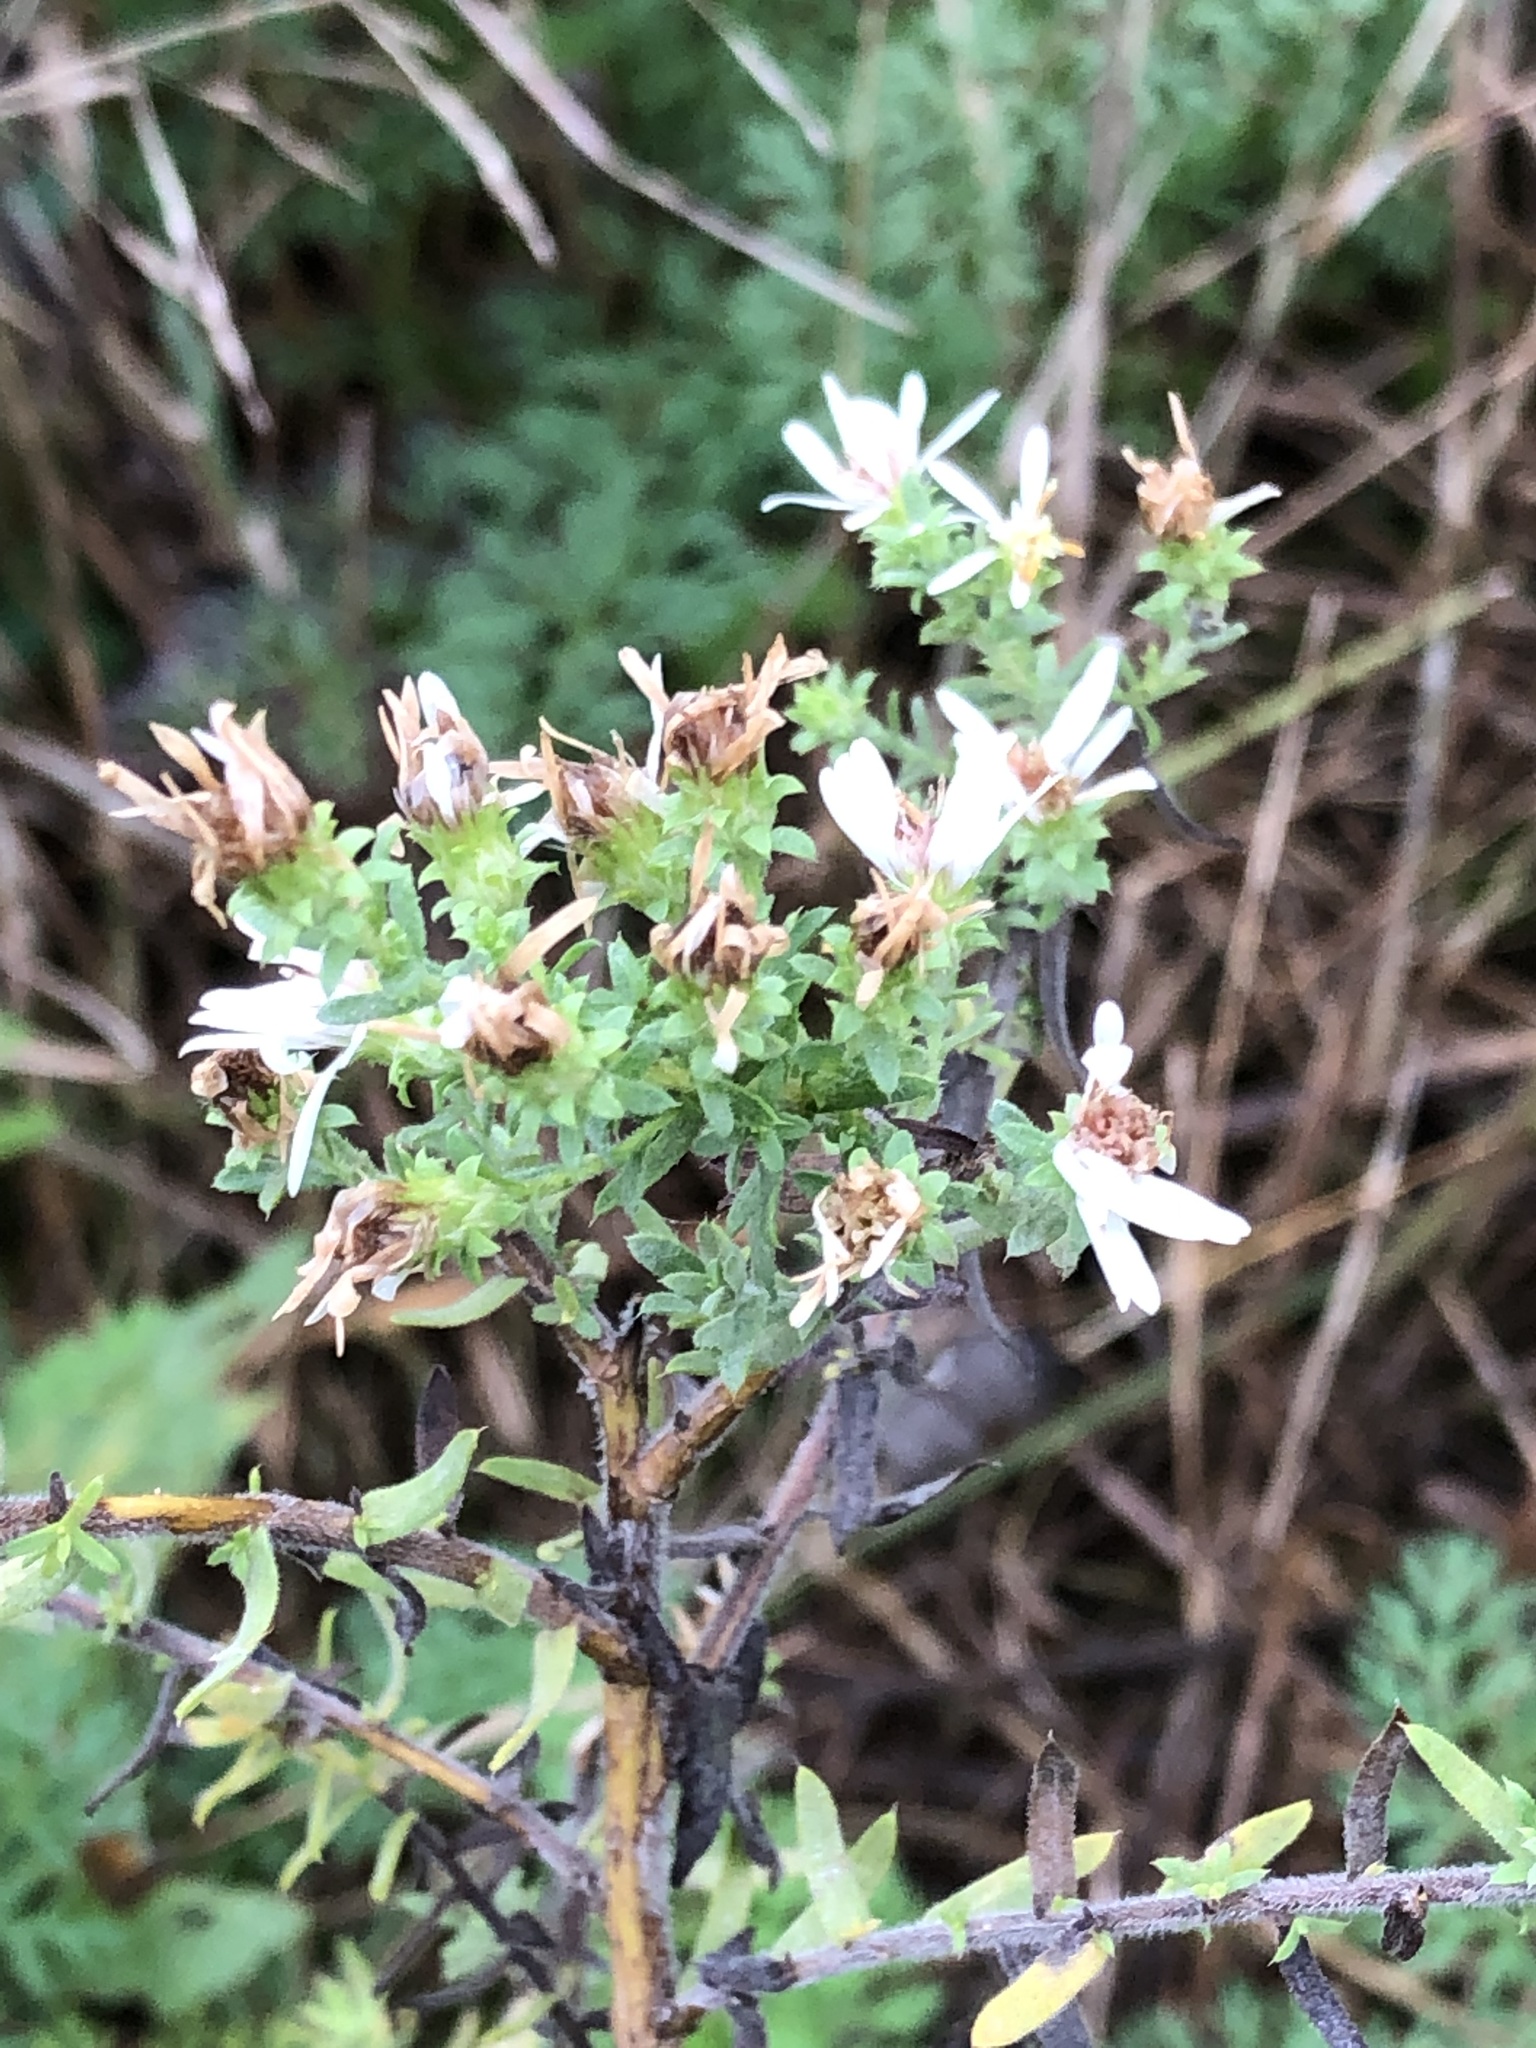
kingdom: Plantae
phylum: Tracheophyta
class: Magnoliopsida
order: Asterales
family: Asteraceae
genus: Symphyotrichum
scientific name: Symphyotrichum ericoides
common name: Heath aster
